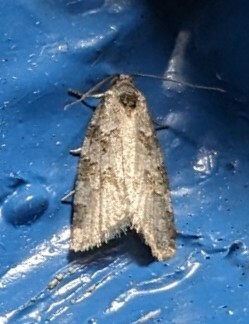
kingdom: Animalia
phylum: Arthropoda
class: Insecta
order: Lepidoptera
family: Tortricidae
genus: Cnephasia
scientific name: Cnephasia stephensiana
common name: Grey tortrix
